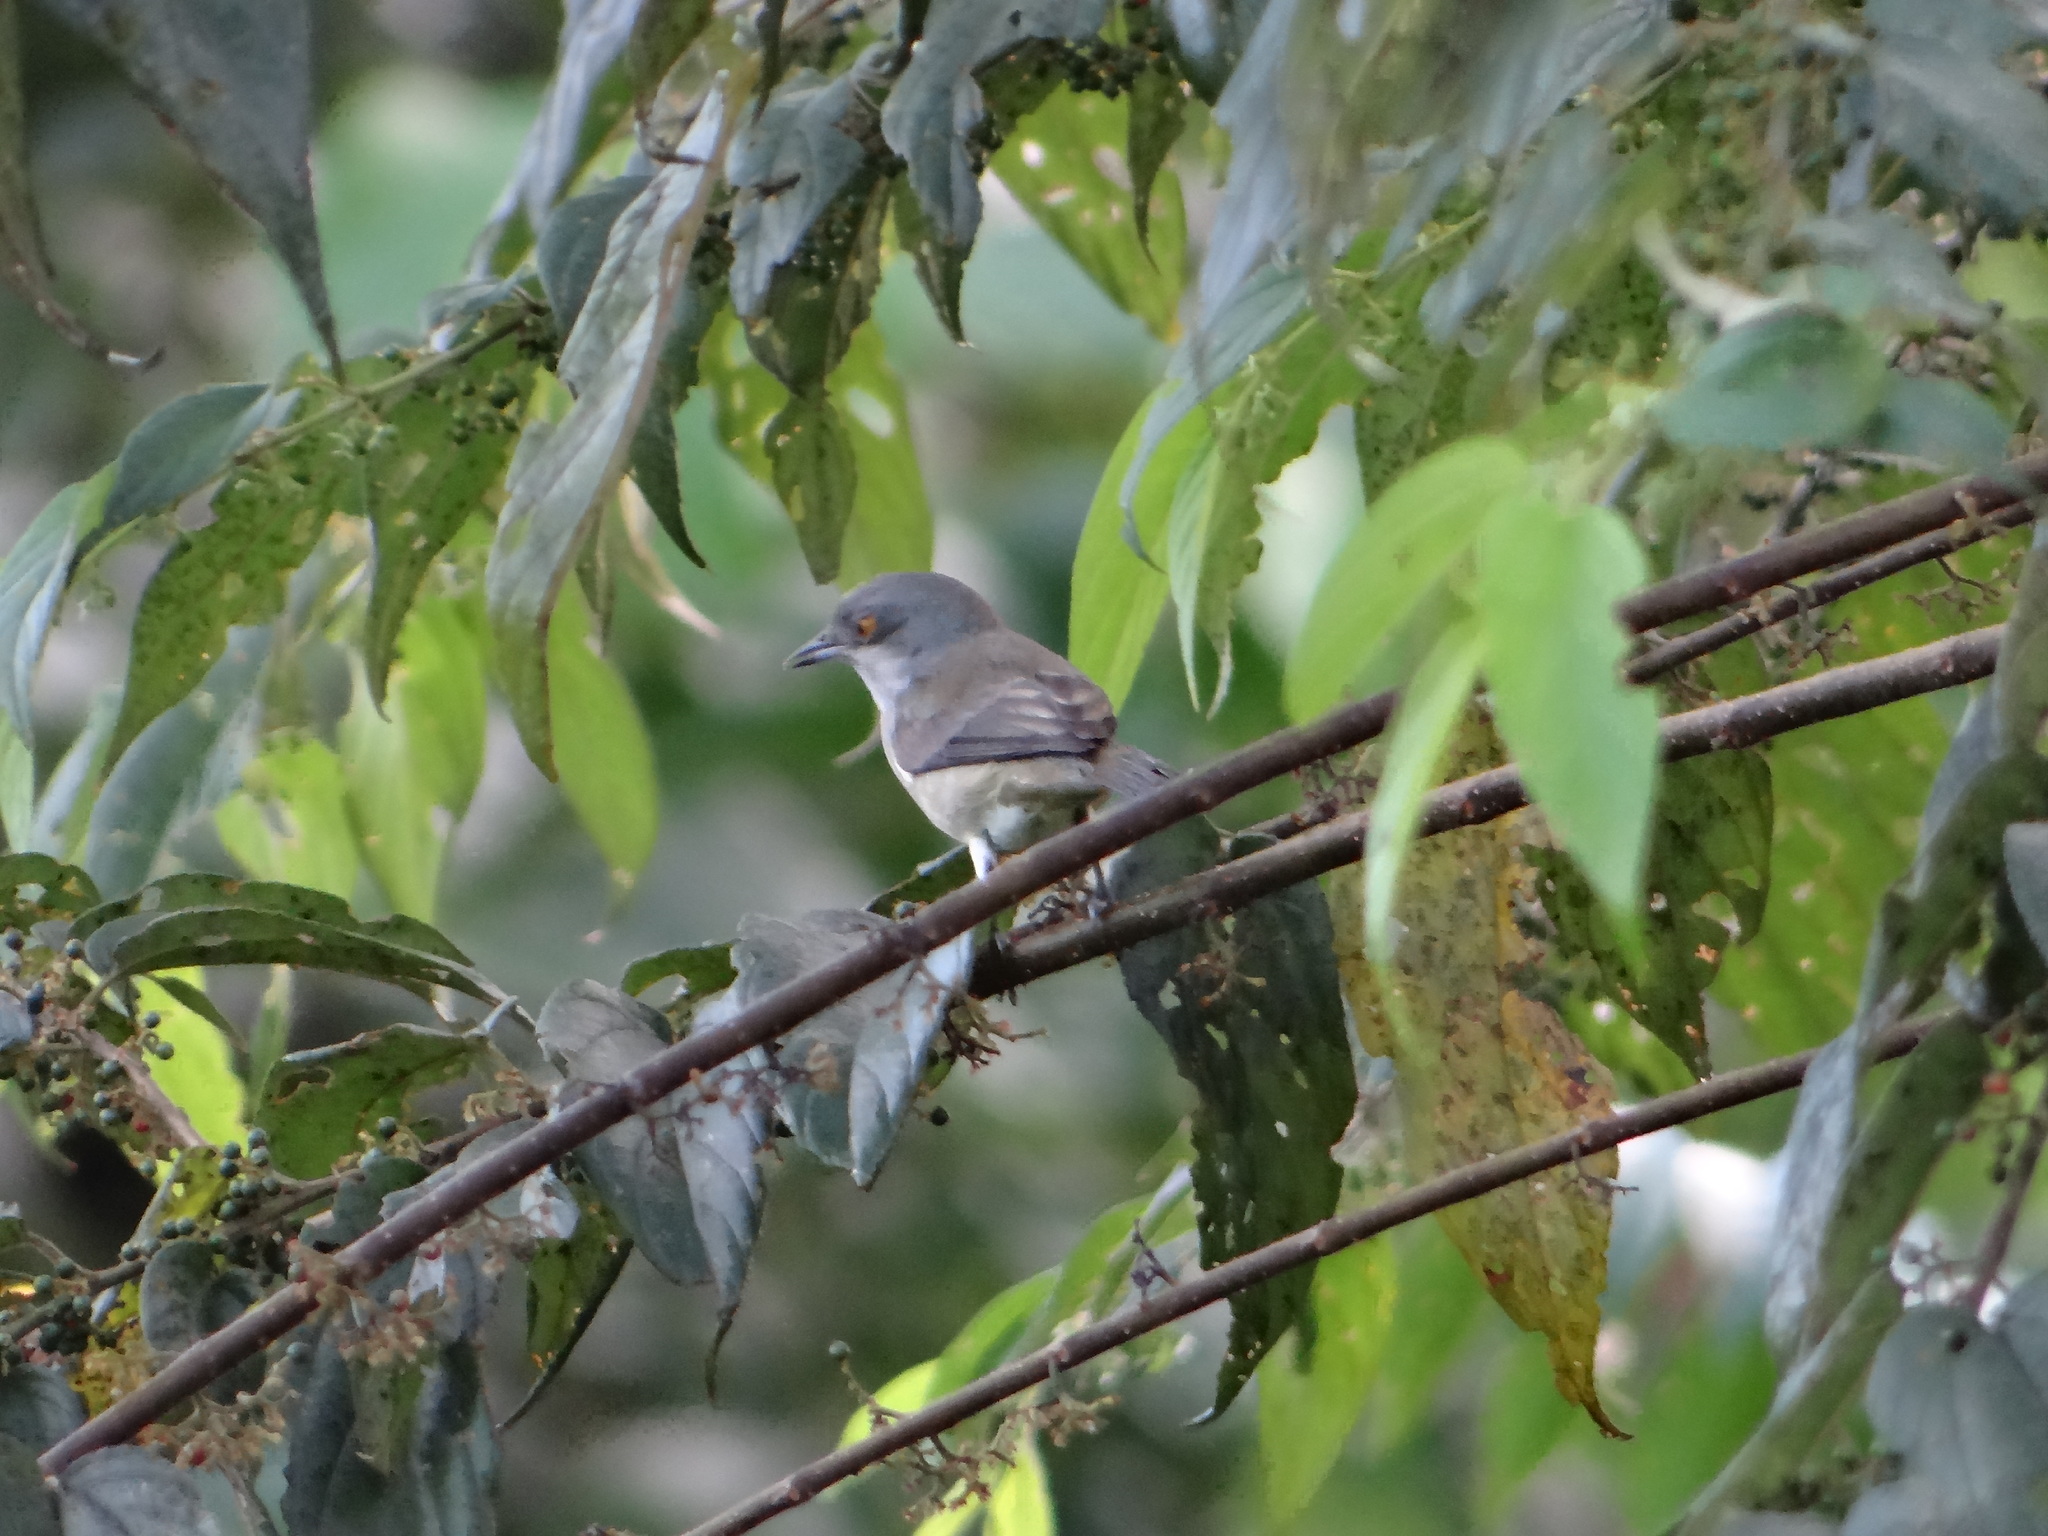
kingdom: Animalia
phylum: Chordata
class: Aves
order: Passeriformes
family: Thraupidae
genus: Dacnis
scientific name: Dacnis lineata
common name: Black-faced dacnis
